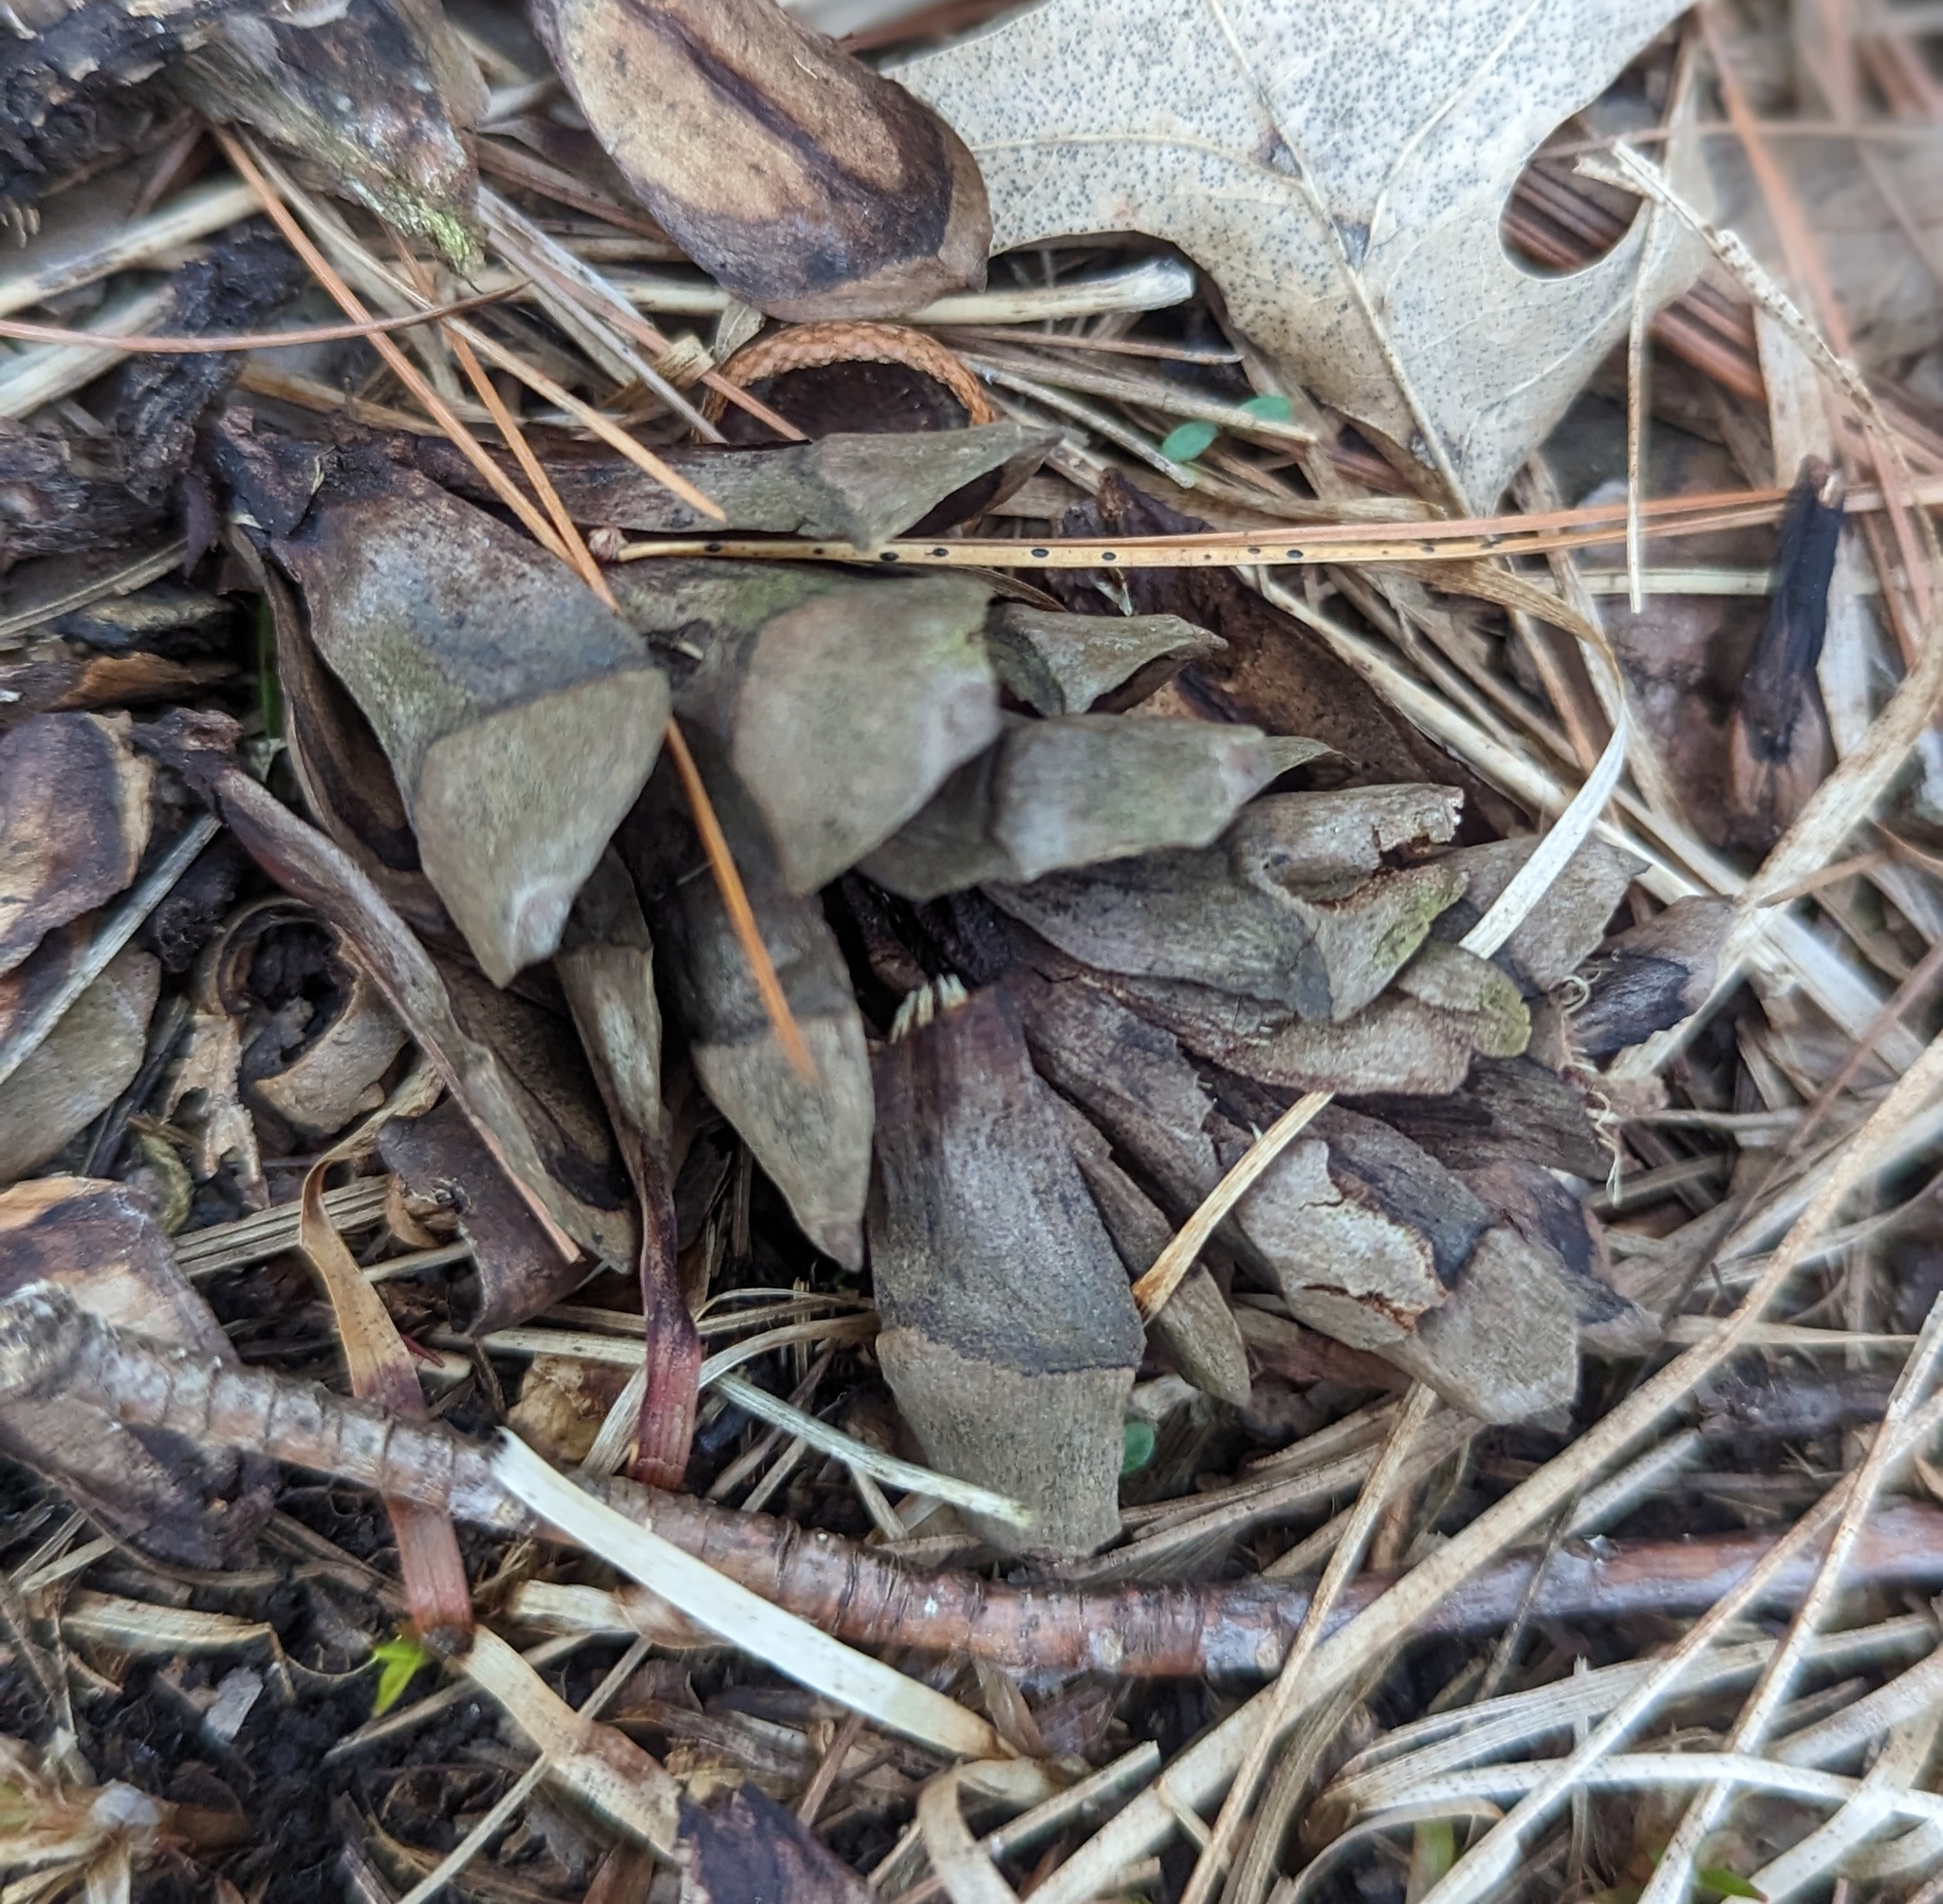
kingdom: Plantae
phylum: Tracheophyta
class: Pinopsida
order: Pinales
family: Pinaceae
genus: Pinus
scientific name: Pinus strobus
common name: Weymouth pine
